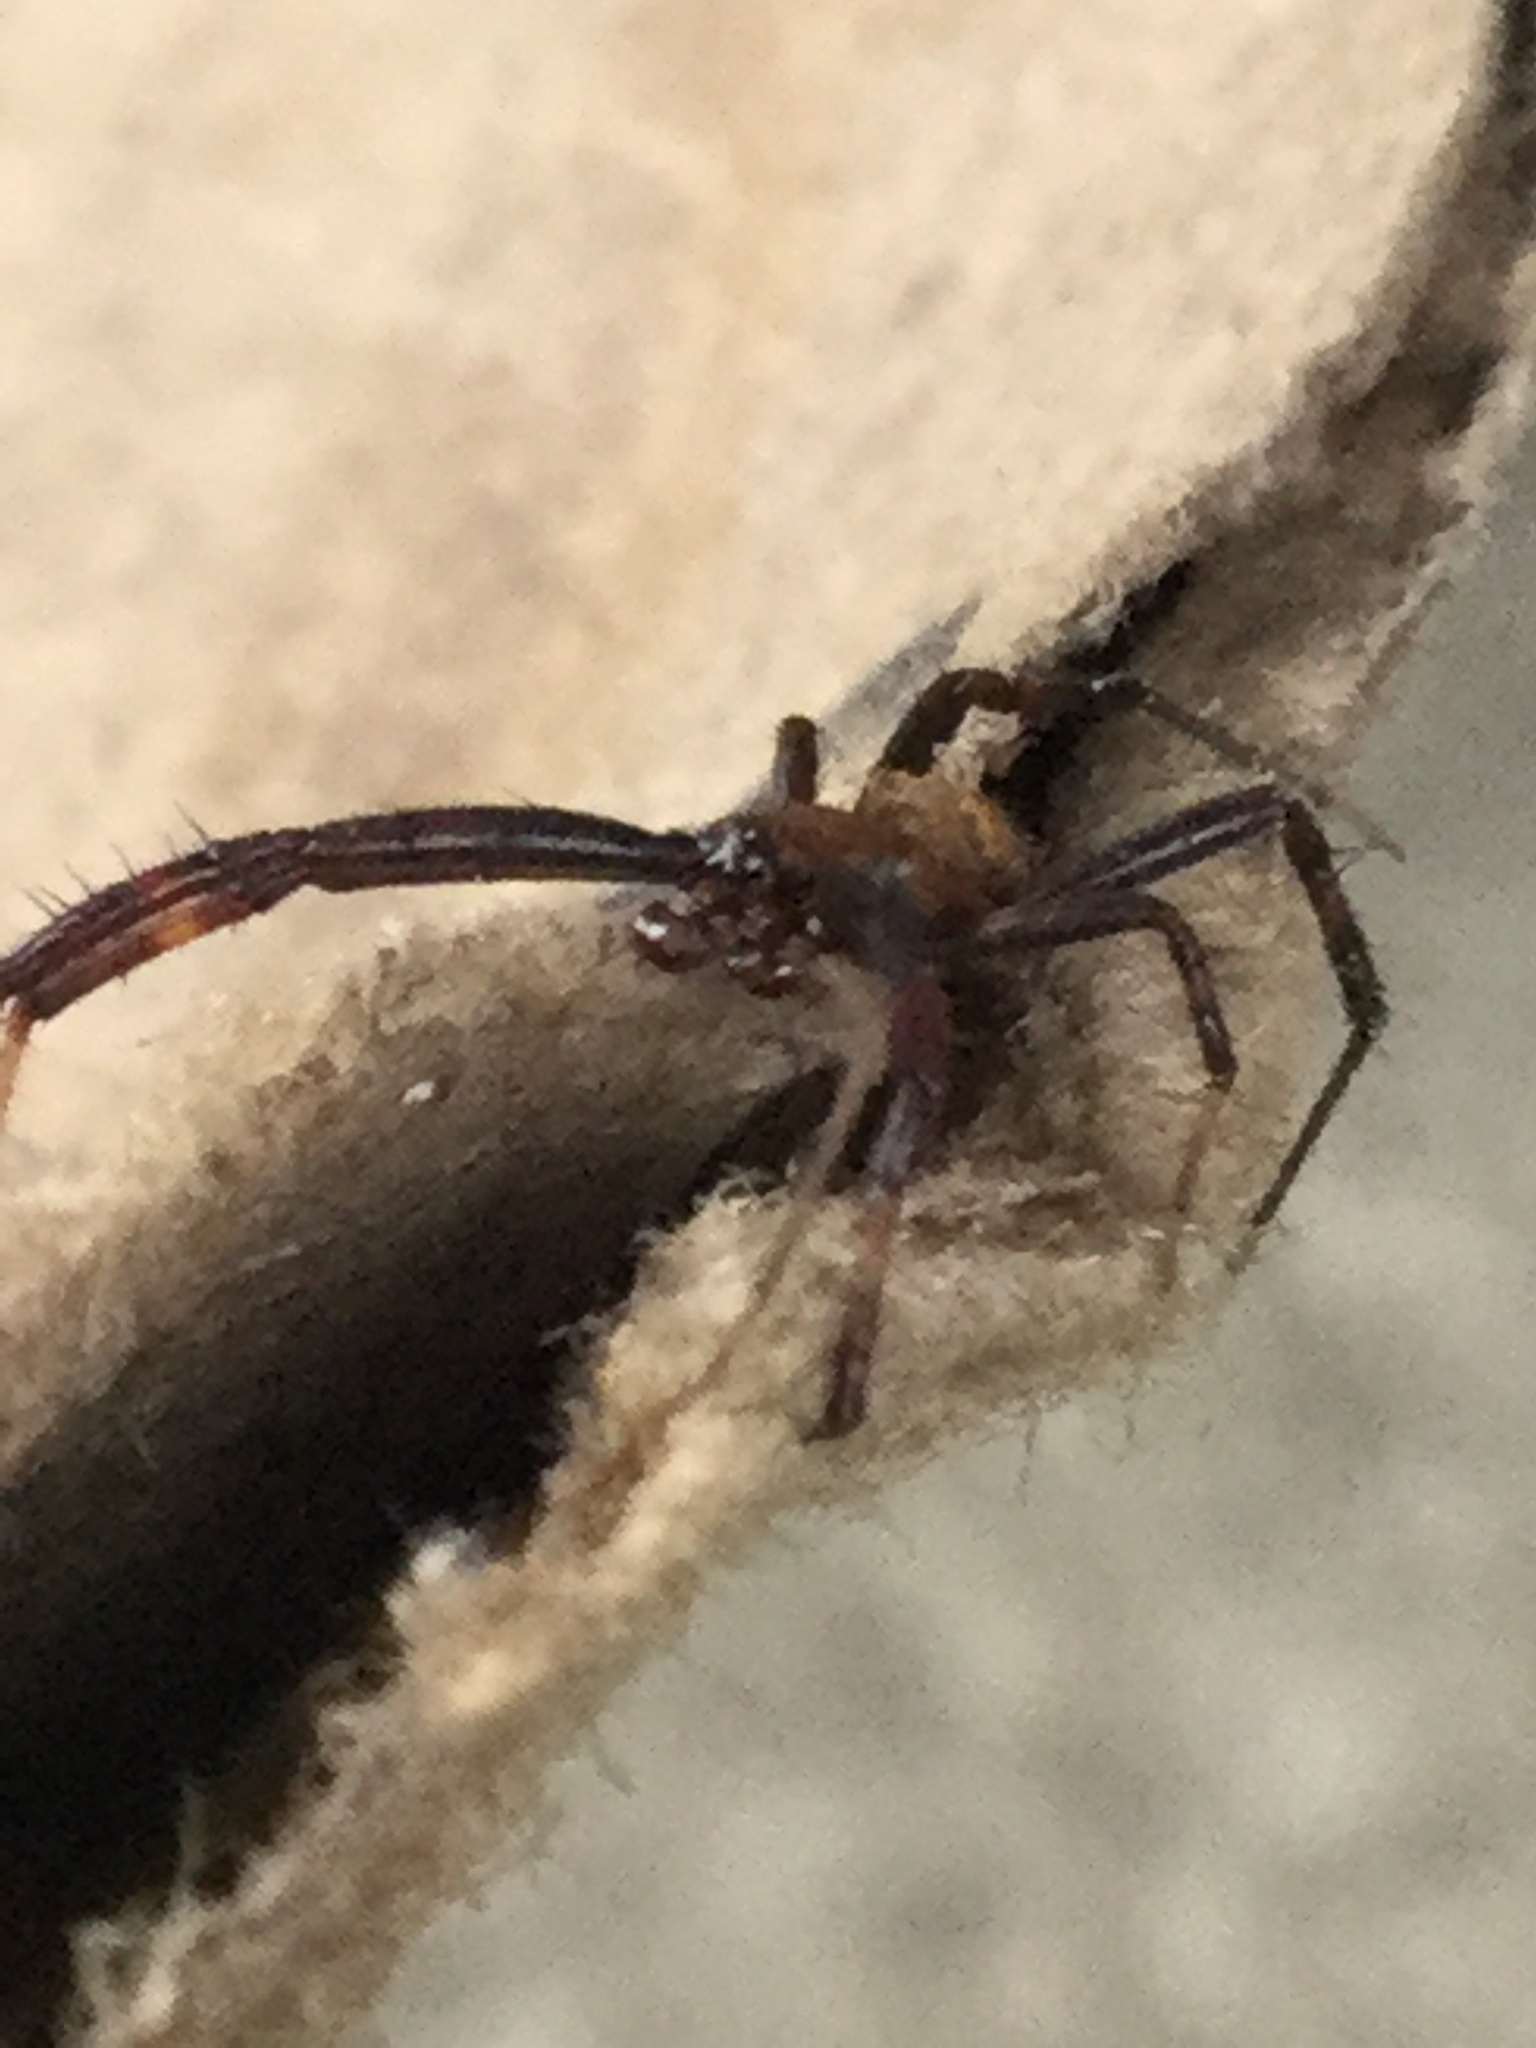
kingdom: Animalia
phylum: Arthropoda
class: Arachnida
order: Araneae
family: Araneidae
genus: Gea
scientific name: Gea heptagon
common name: Orb weavers
